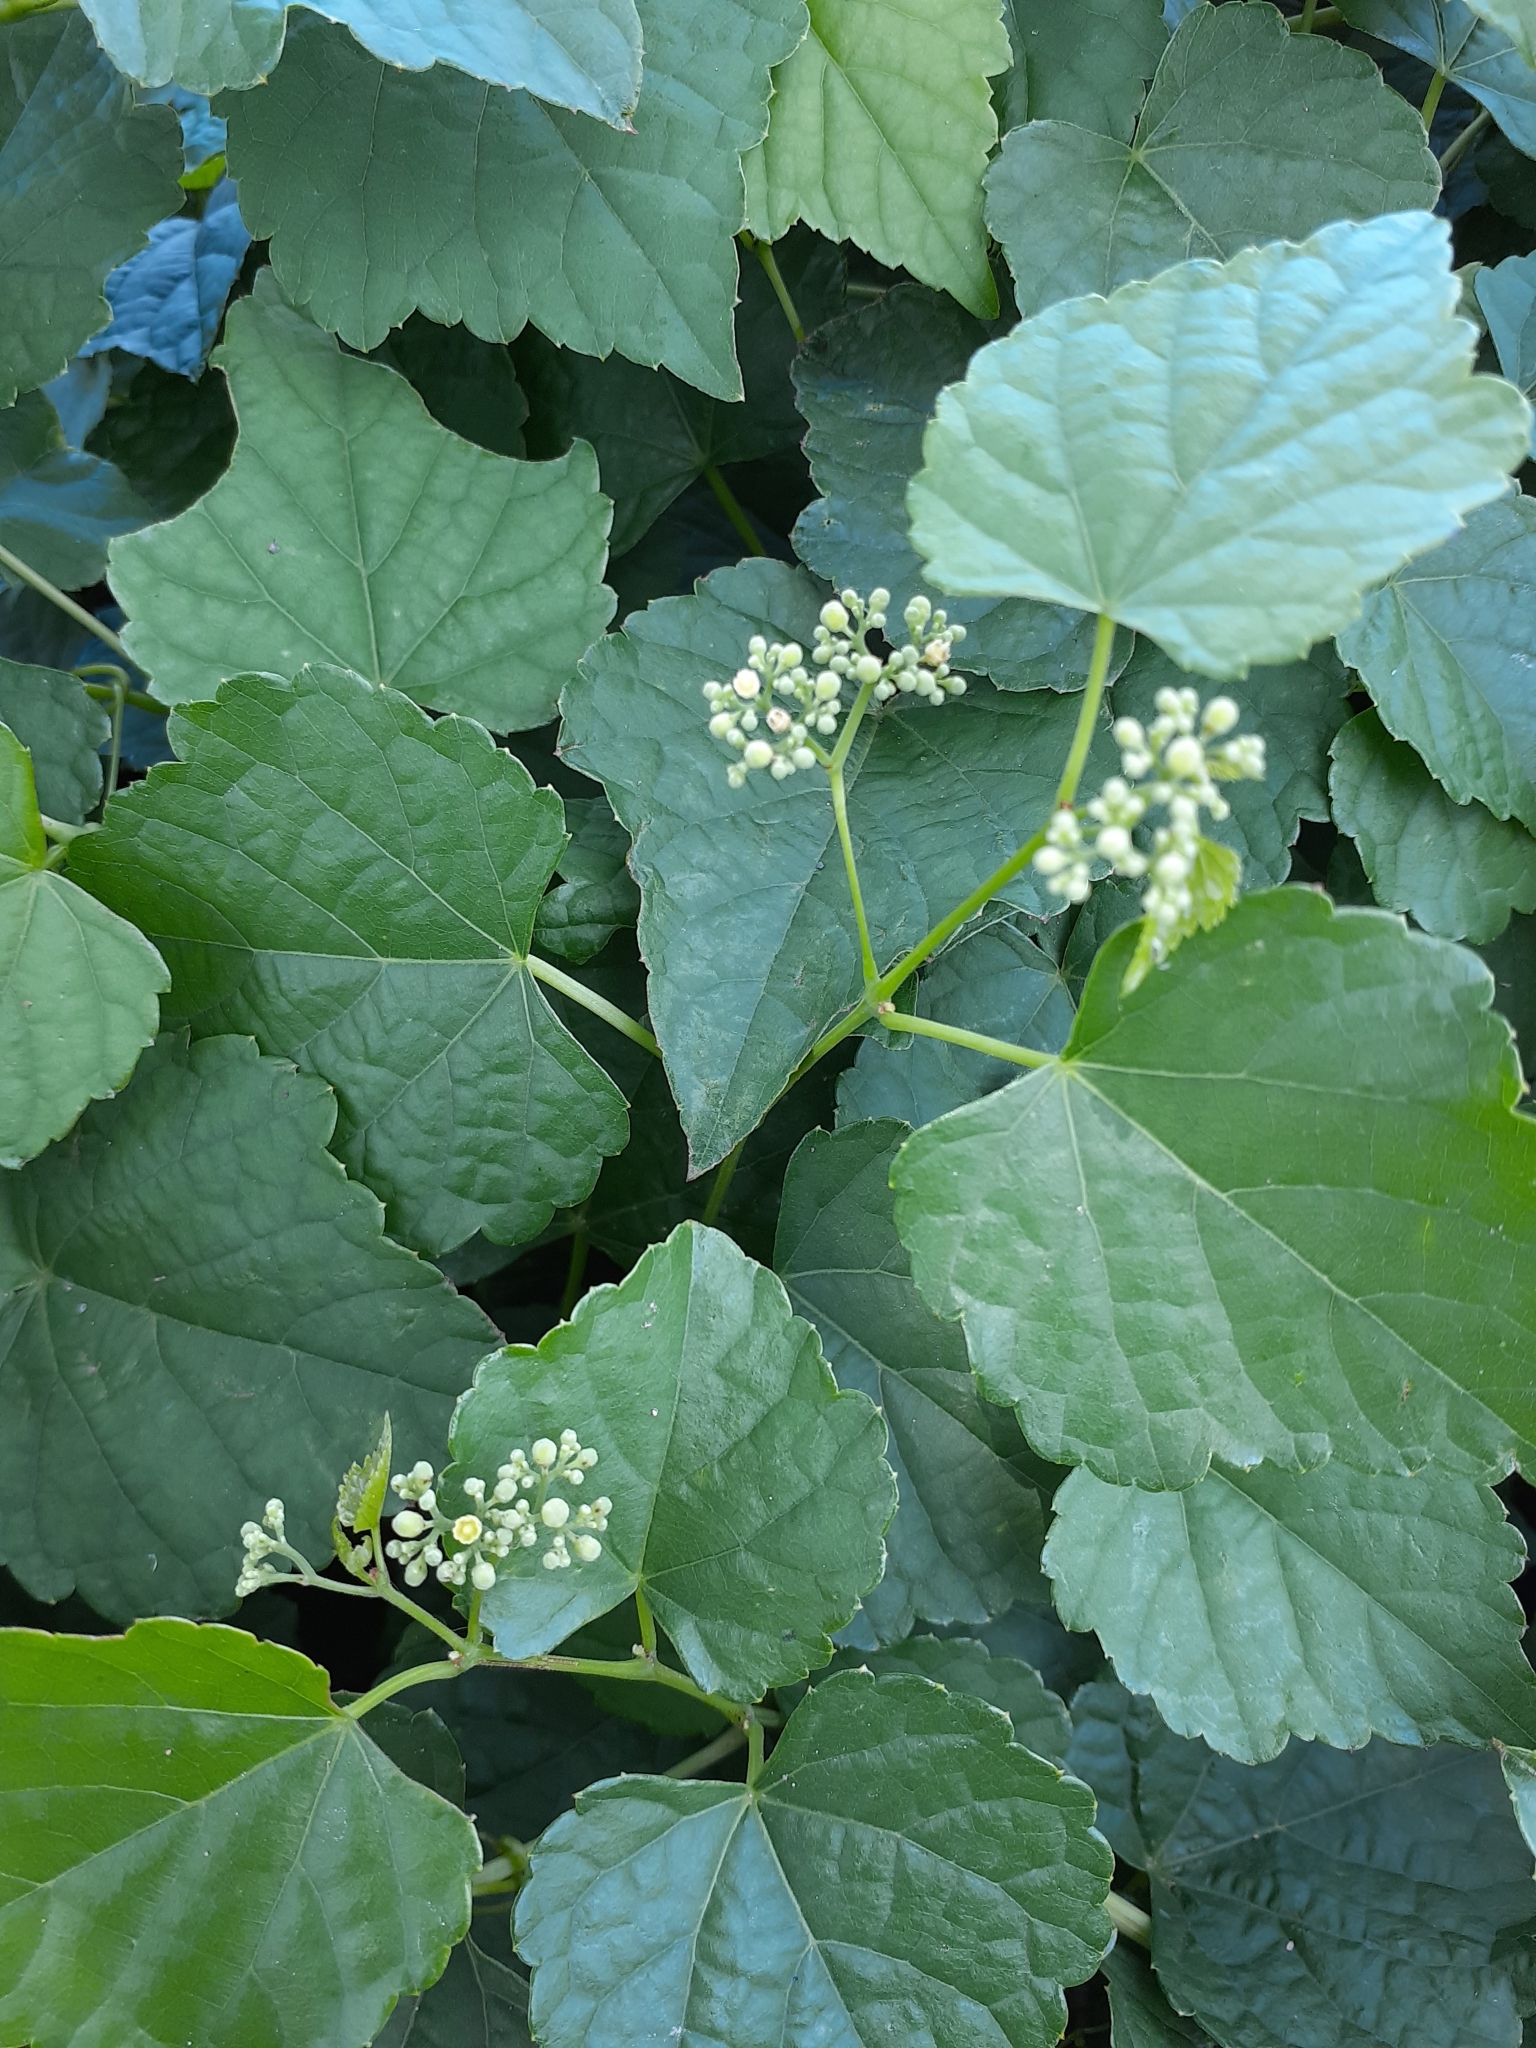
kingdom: Plantae
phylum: Tracheophyta
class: Magnoliopsida
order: Vitales
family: Vitaceae
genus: Ampelopsis
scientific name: Ampelopsis glandulosa
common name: Amur peppervine
